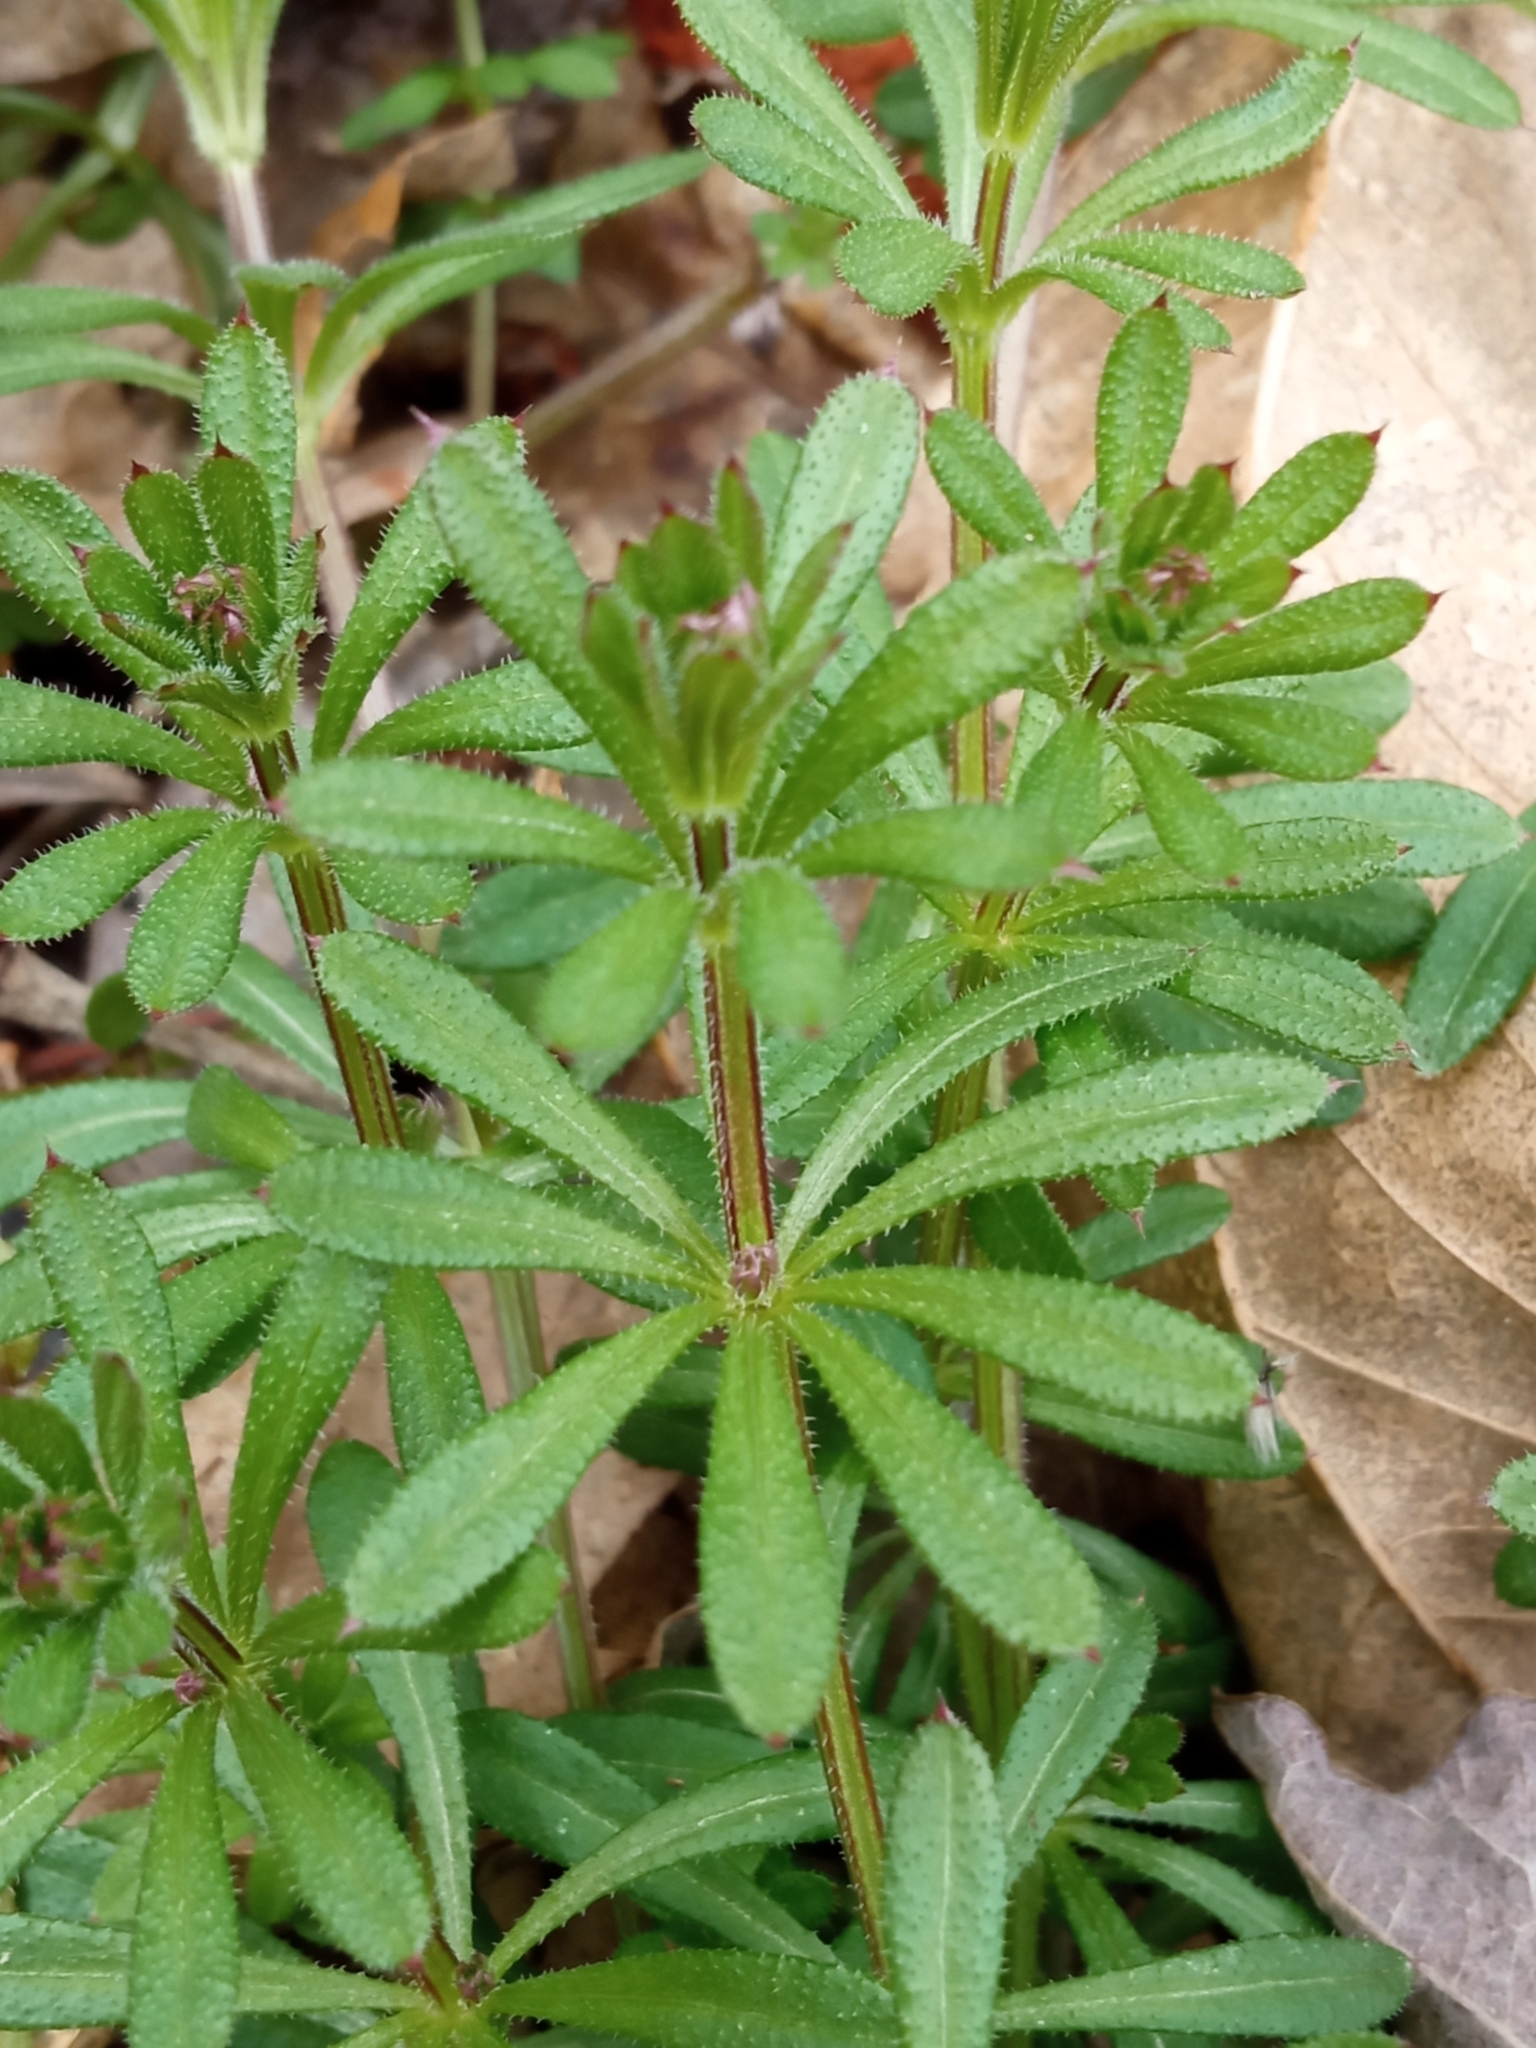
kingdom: Plantae
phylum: Tracheophyta
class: Magnoliopsida
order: Gentianales
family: Rubiaceae
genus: Galium
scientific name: Galium aparine
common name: Cleavers
